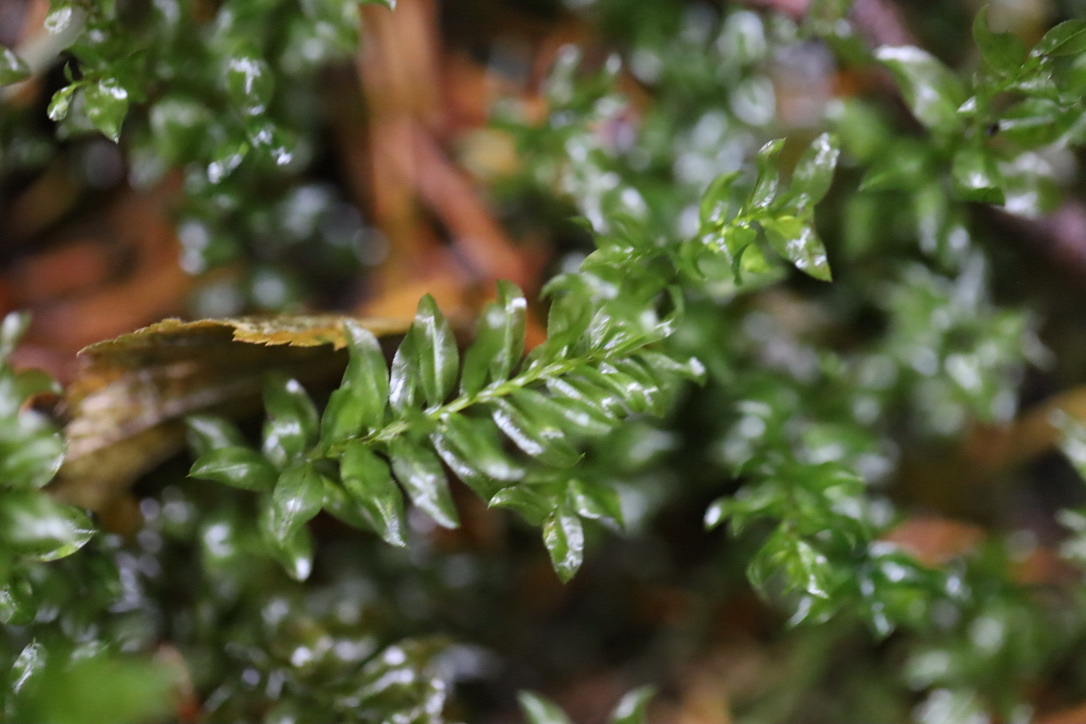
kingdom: Plantae
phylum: Bryophyta
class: Bryopsida
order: Bryales
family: Mniaceae
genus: Plagiomnium
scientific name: Plagiomnium insigne
